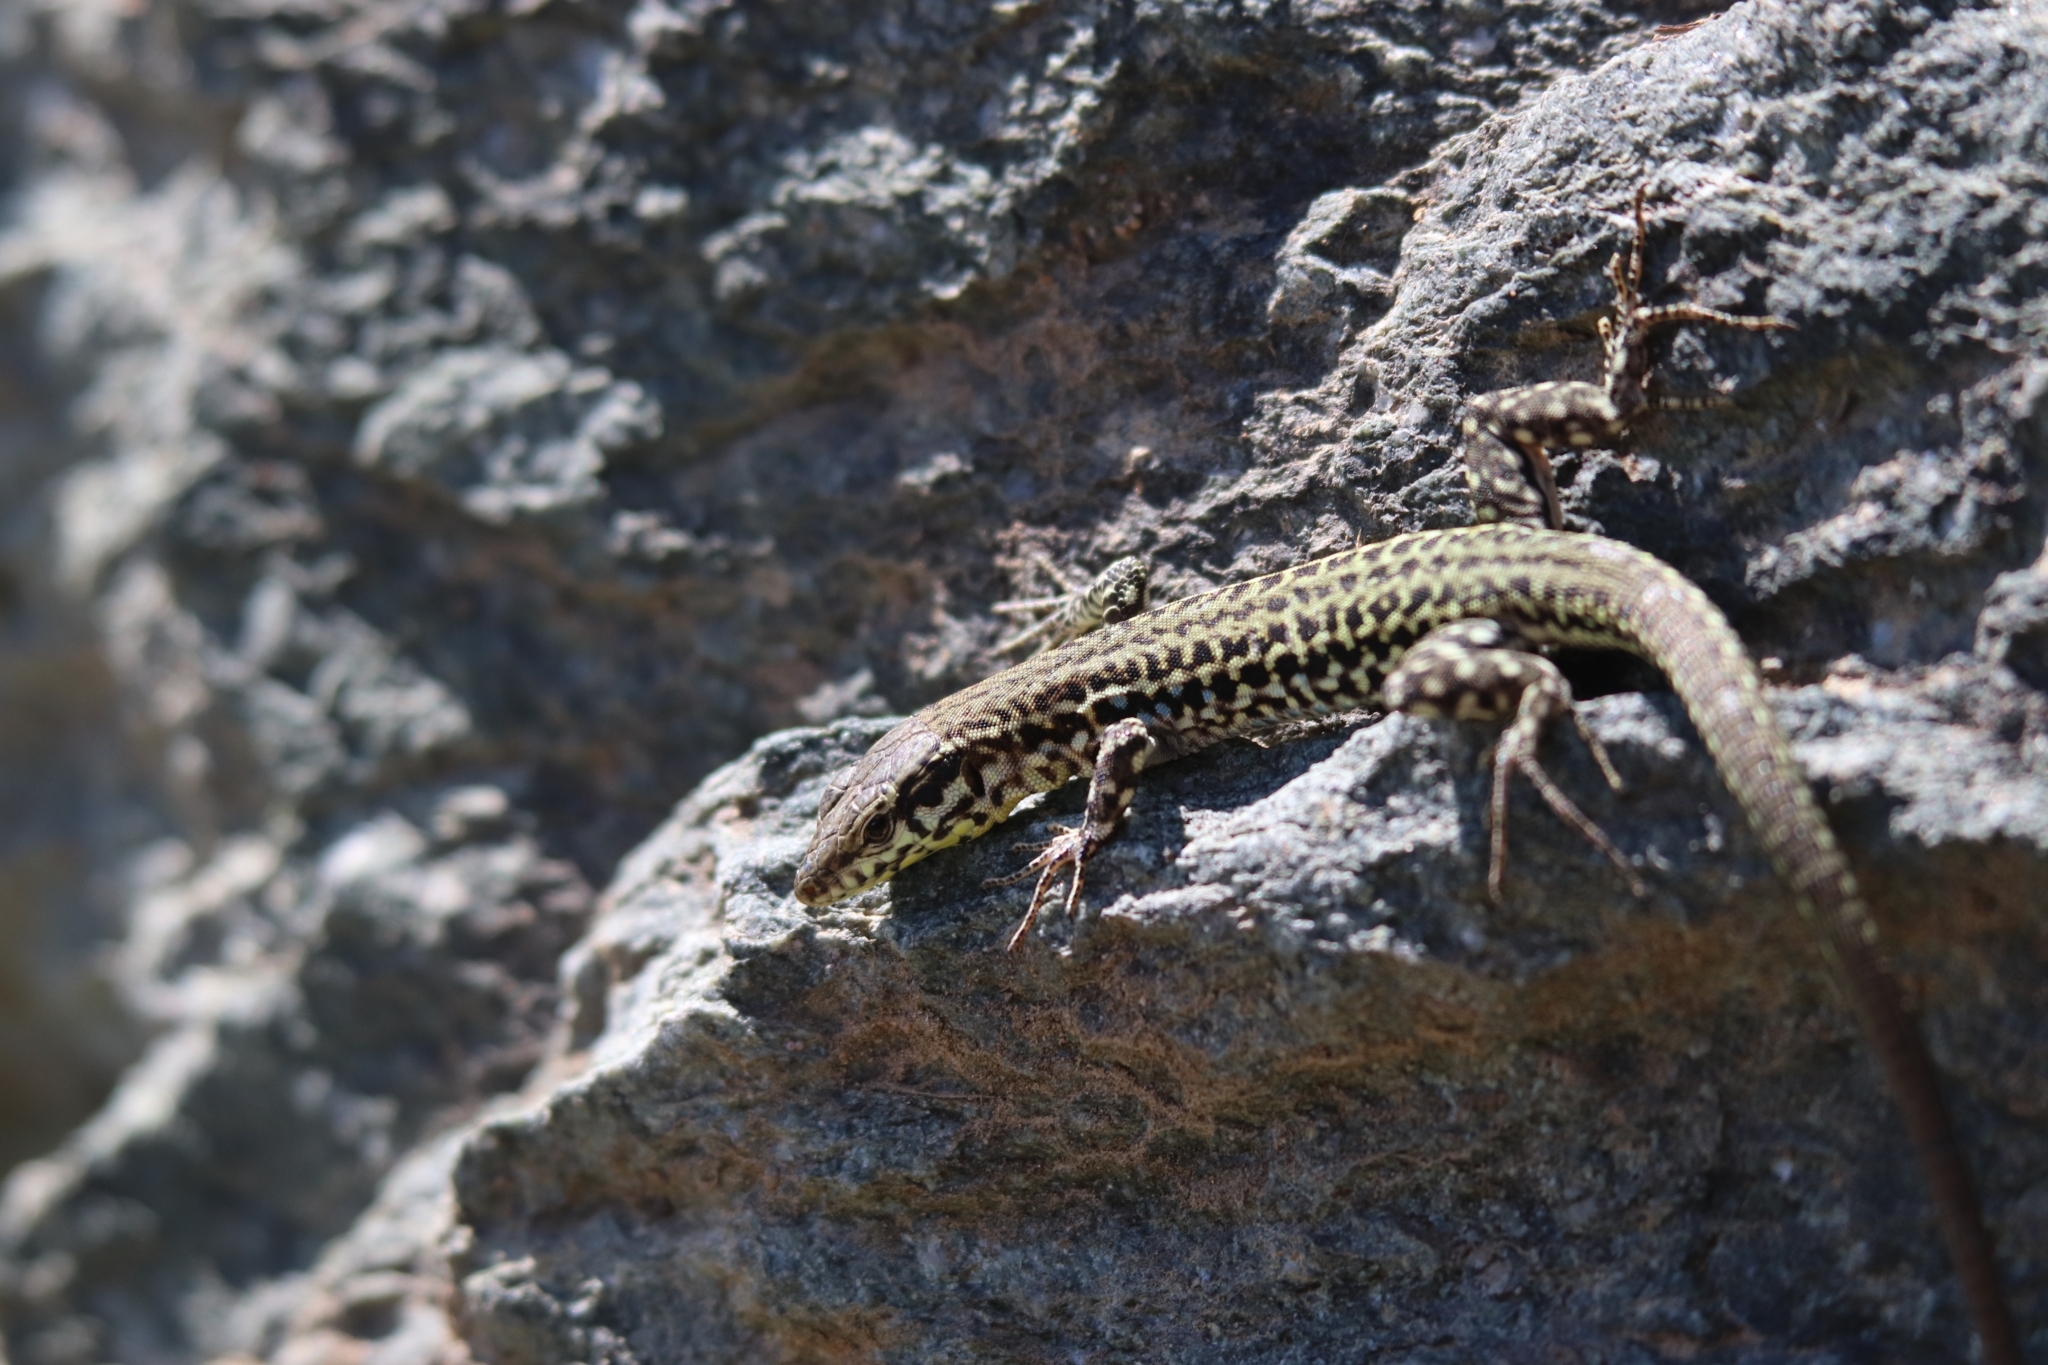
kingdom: Animalia
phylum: Chordata
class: Squamata
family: Lacertidae
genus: Podarcis
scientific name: Podarcis tiliguerta
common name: Tyrrhenian wall lizard
